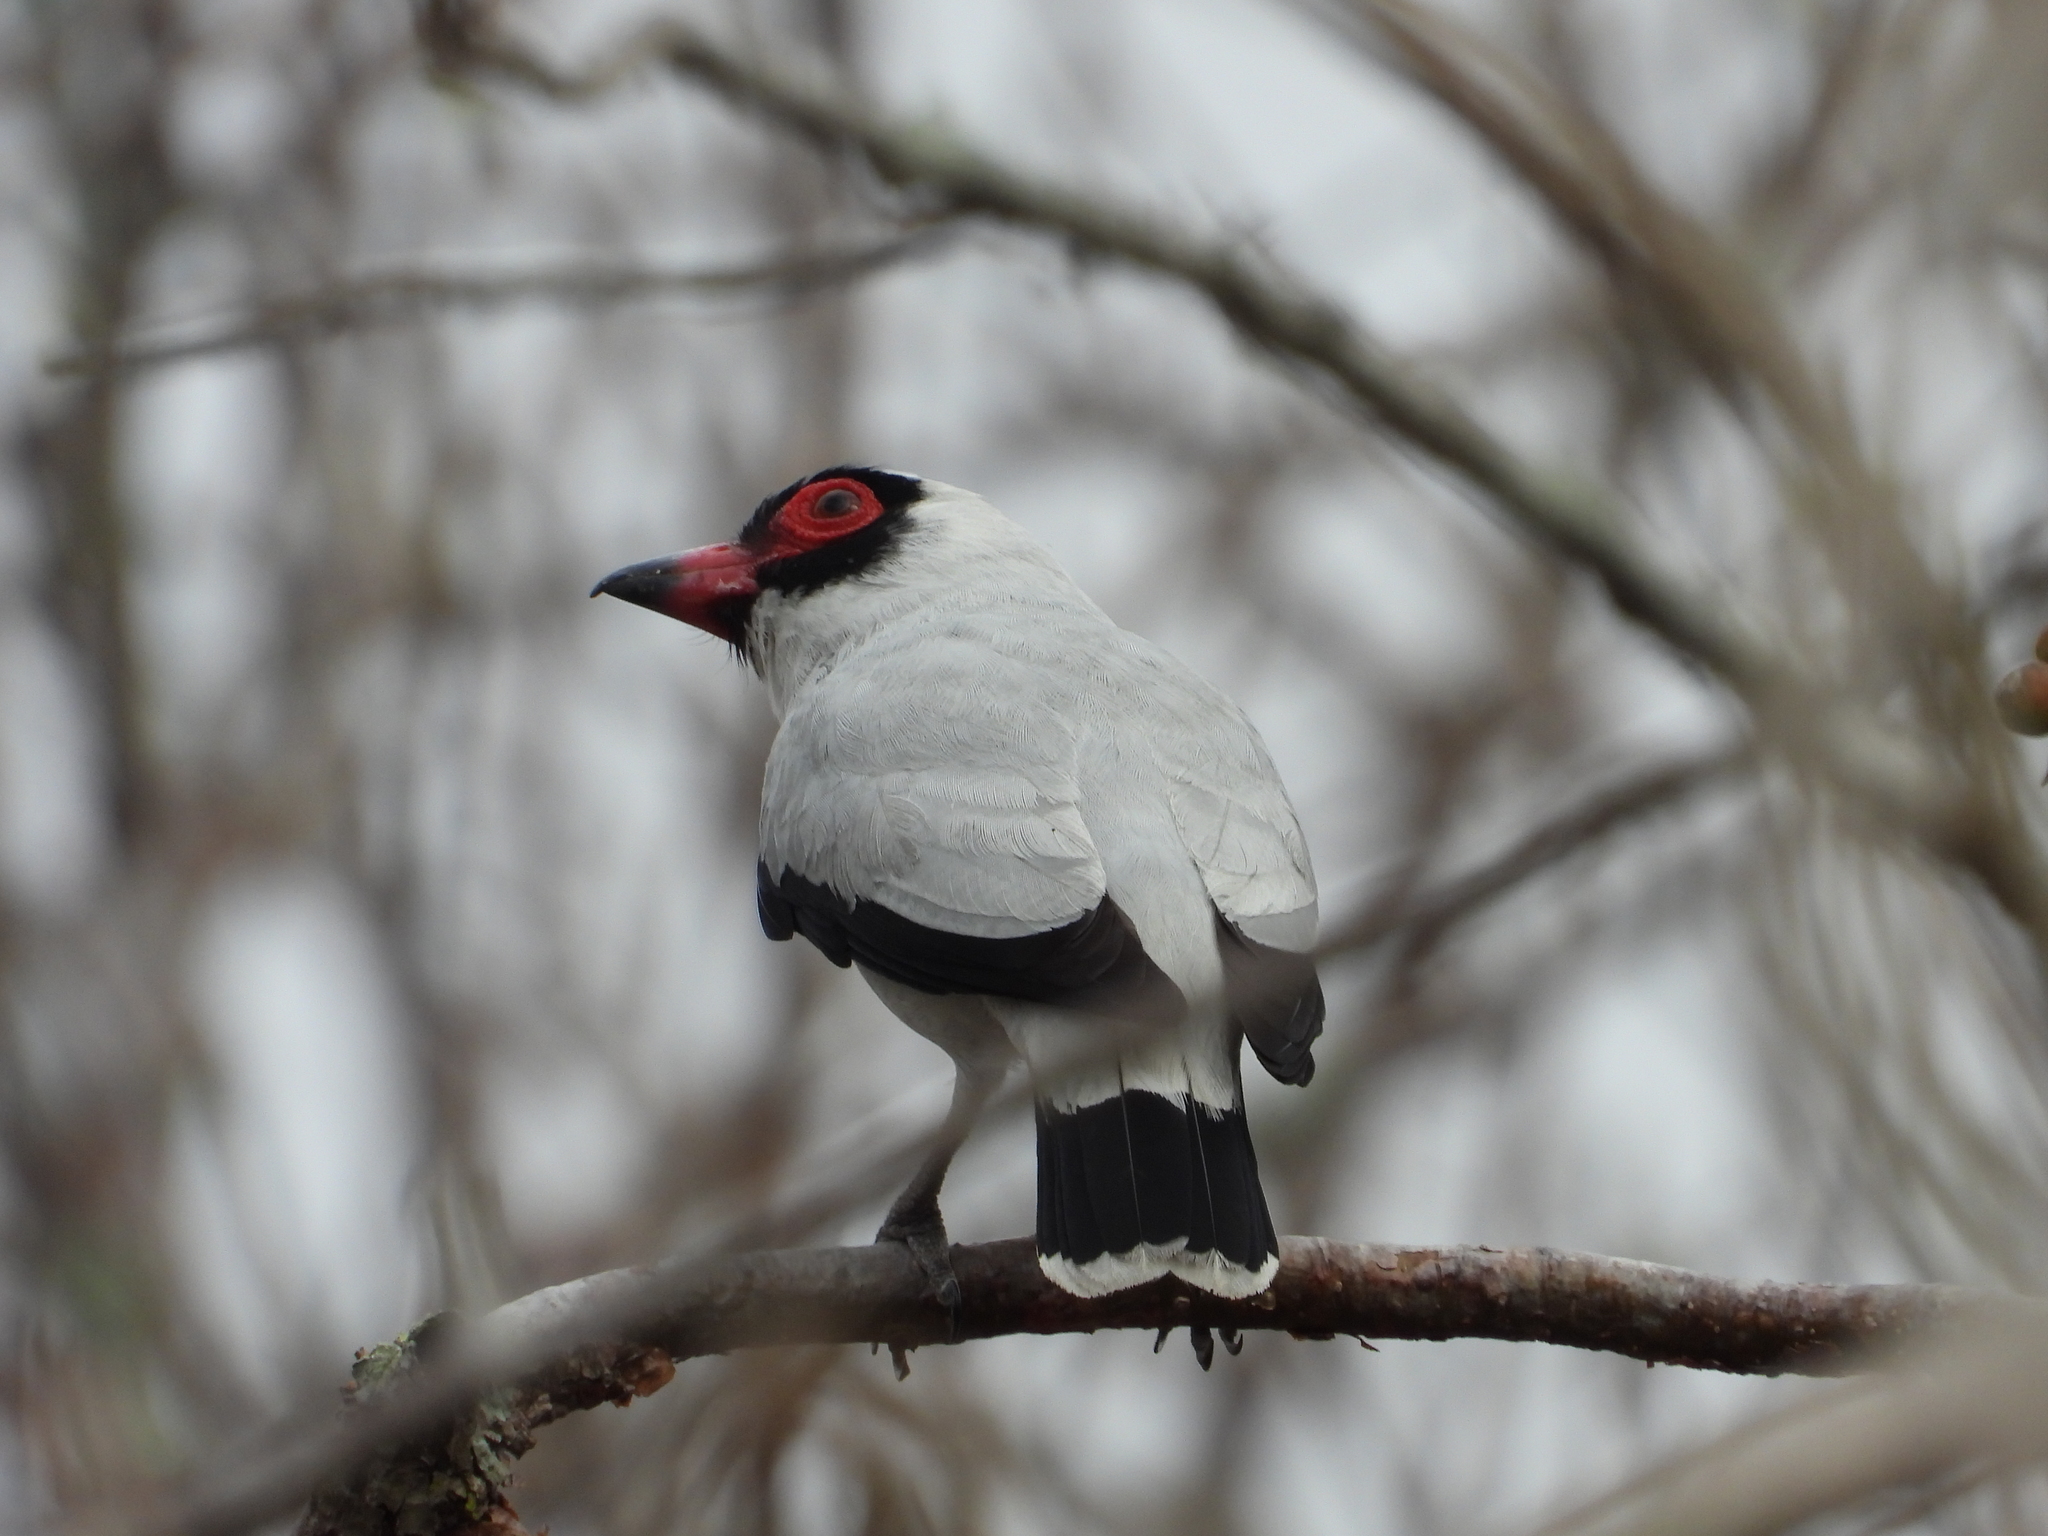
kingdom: Animalia
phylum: Chordata
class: Aves
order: Passeriformes
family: Cotingidae
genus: Tityra
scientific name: Tityra semifasciata
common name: Masked tityra
